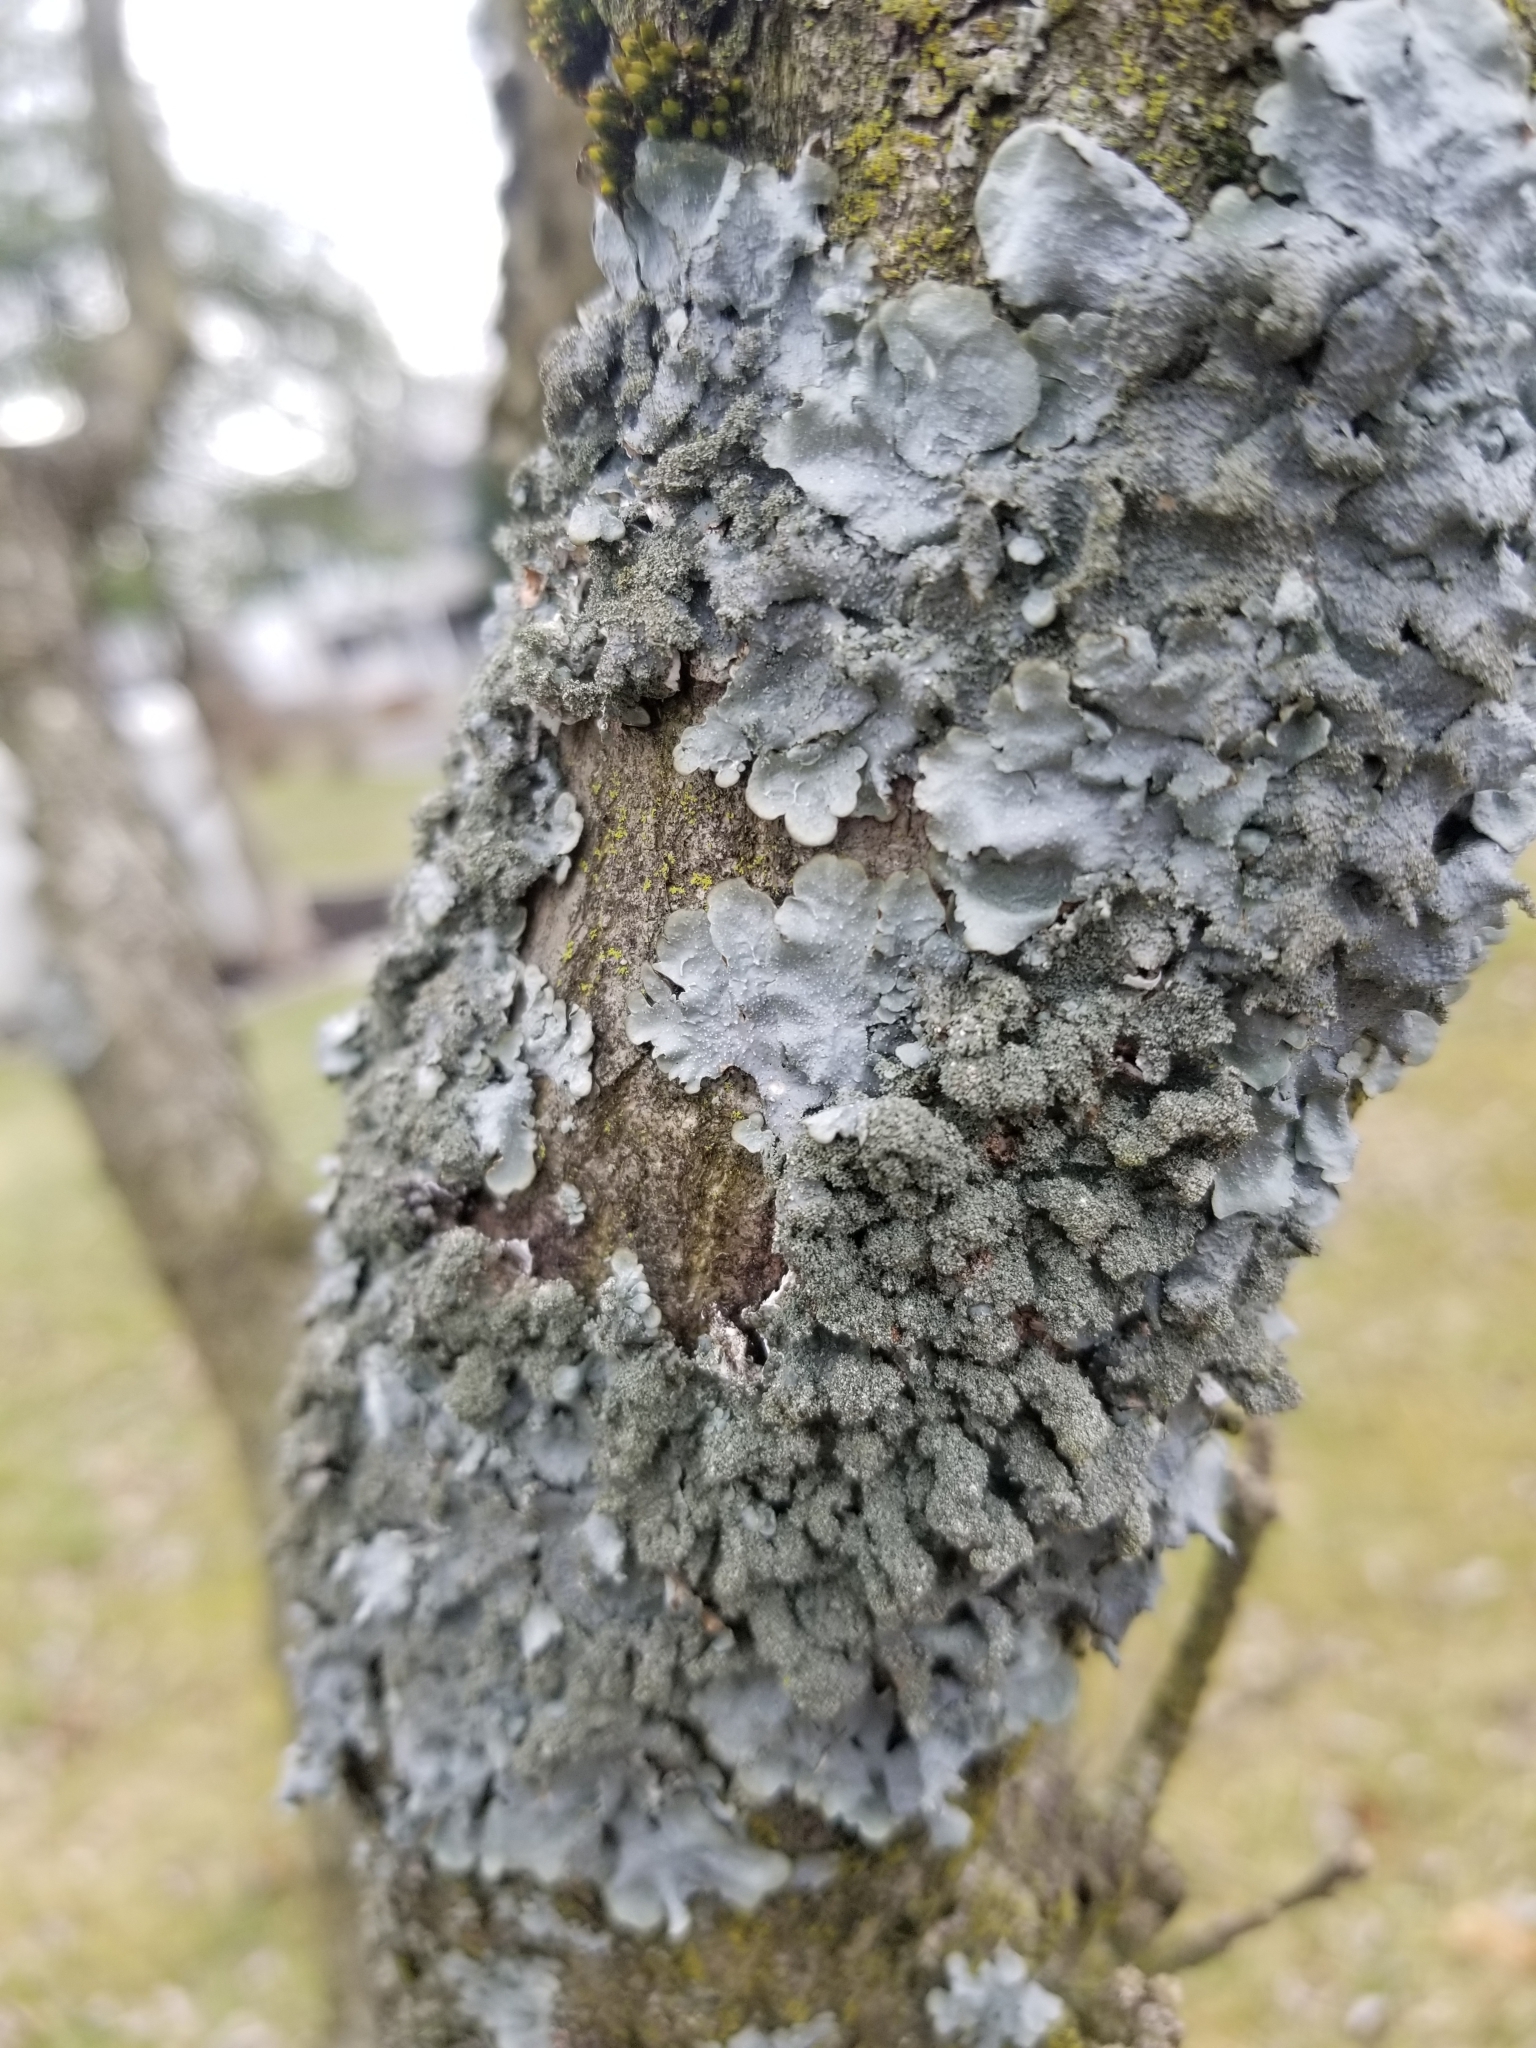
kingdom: Fungi
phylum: Ascomycota
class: Lecanoromycetes
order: Caliciales
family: Physciaceae
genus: Physcia
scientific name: Physcia stellaris
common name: Star rosette lichen
